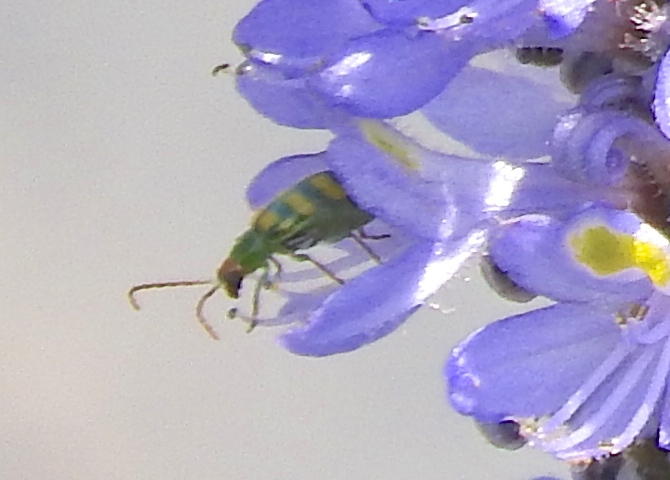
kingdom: Animalia
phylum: Arthropoda
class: Insecta
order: Coleoptera
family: Chrysomelidae
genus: Diabrotica
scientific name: Diabrotica balteata
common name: Leaf beetle
